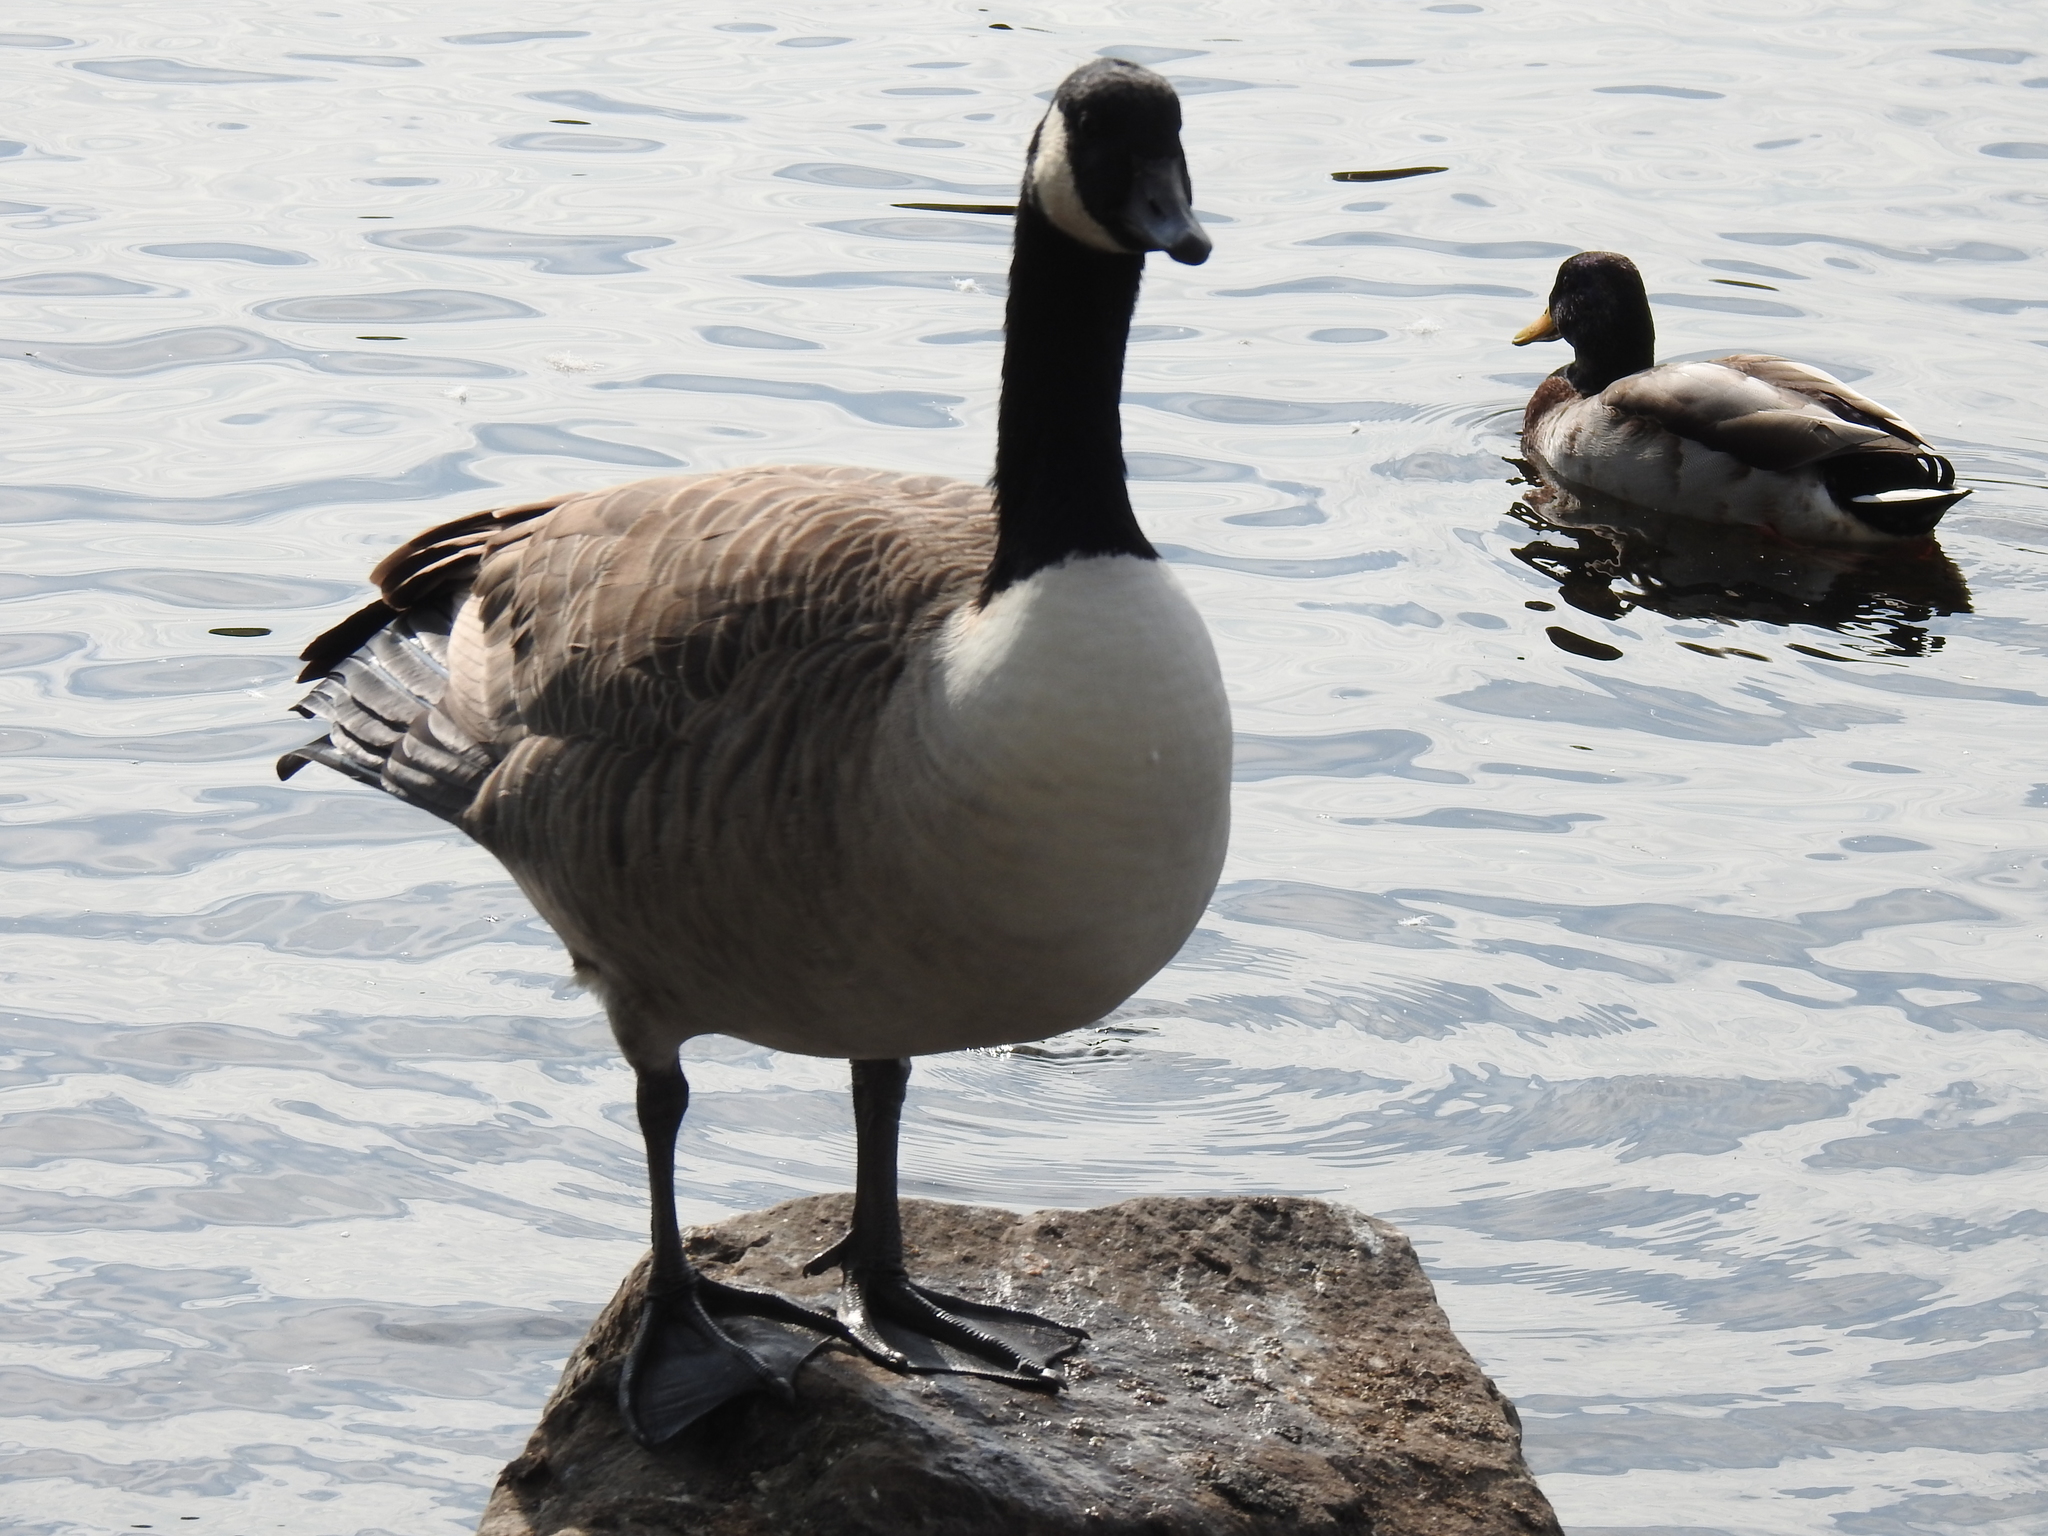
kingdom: Animalia
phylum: Chordata
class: Aves
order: Anseriformes
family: Anatidae
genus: Branta
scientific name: Branta canadensis
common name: Canada goose
